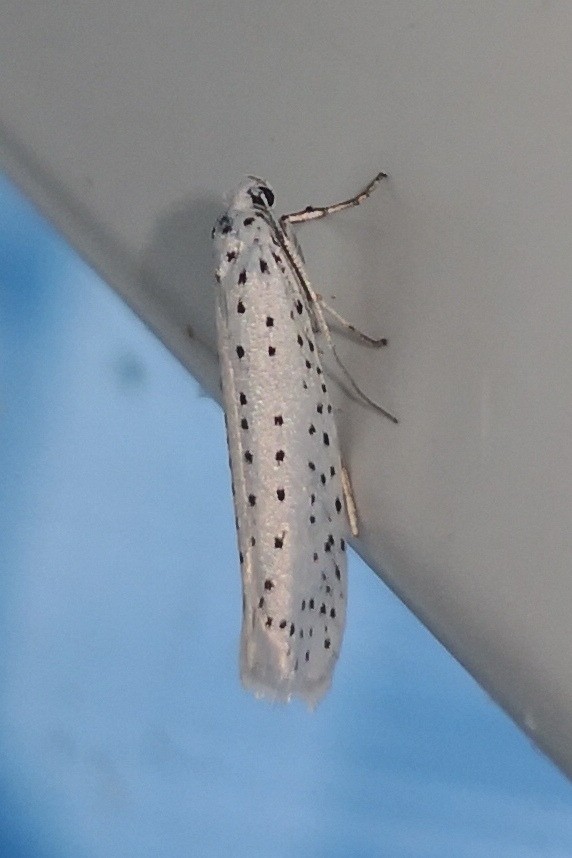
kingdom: Animalia
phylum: Arthropoda
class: Insecta
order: Lepidoptera
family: Yponomeutidae
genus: Yponomeuta
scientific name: Yponomeuta evonymella
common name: Bird-cherry ermine
